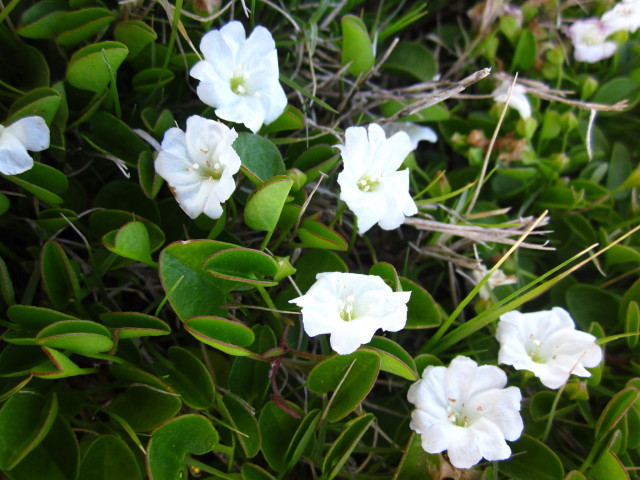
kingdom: Plantae
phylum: Tracheophyta
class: Magnoliopsida
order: Solanales
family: Convolvulaceae
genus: Falkia
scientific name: Falkia repens
